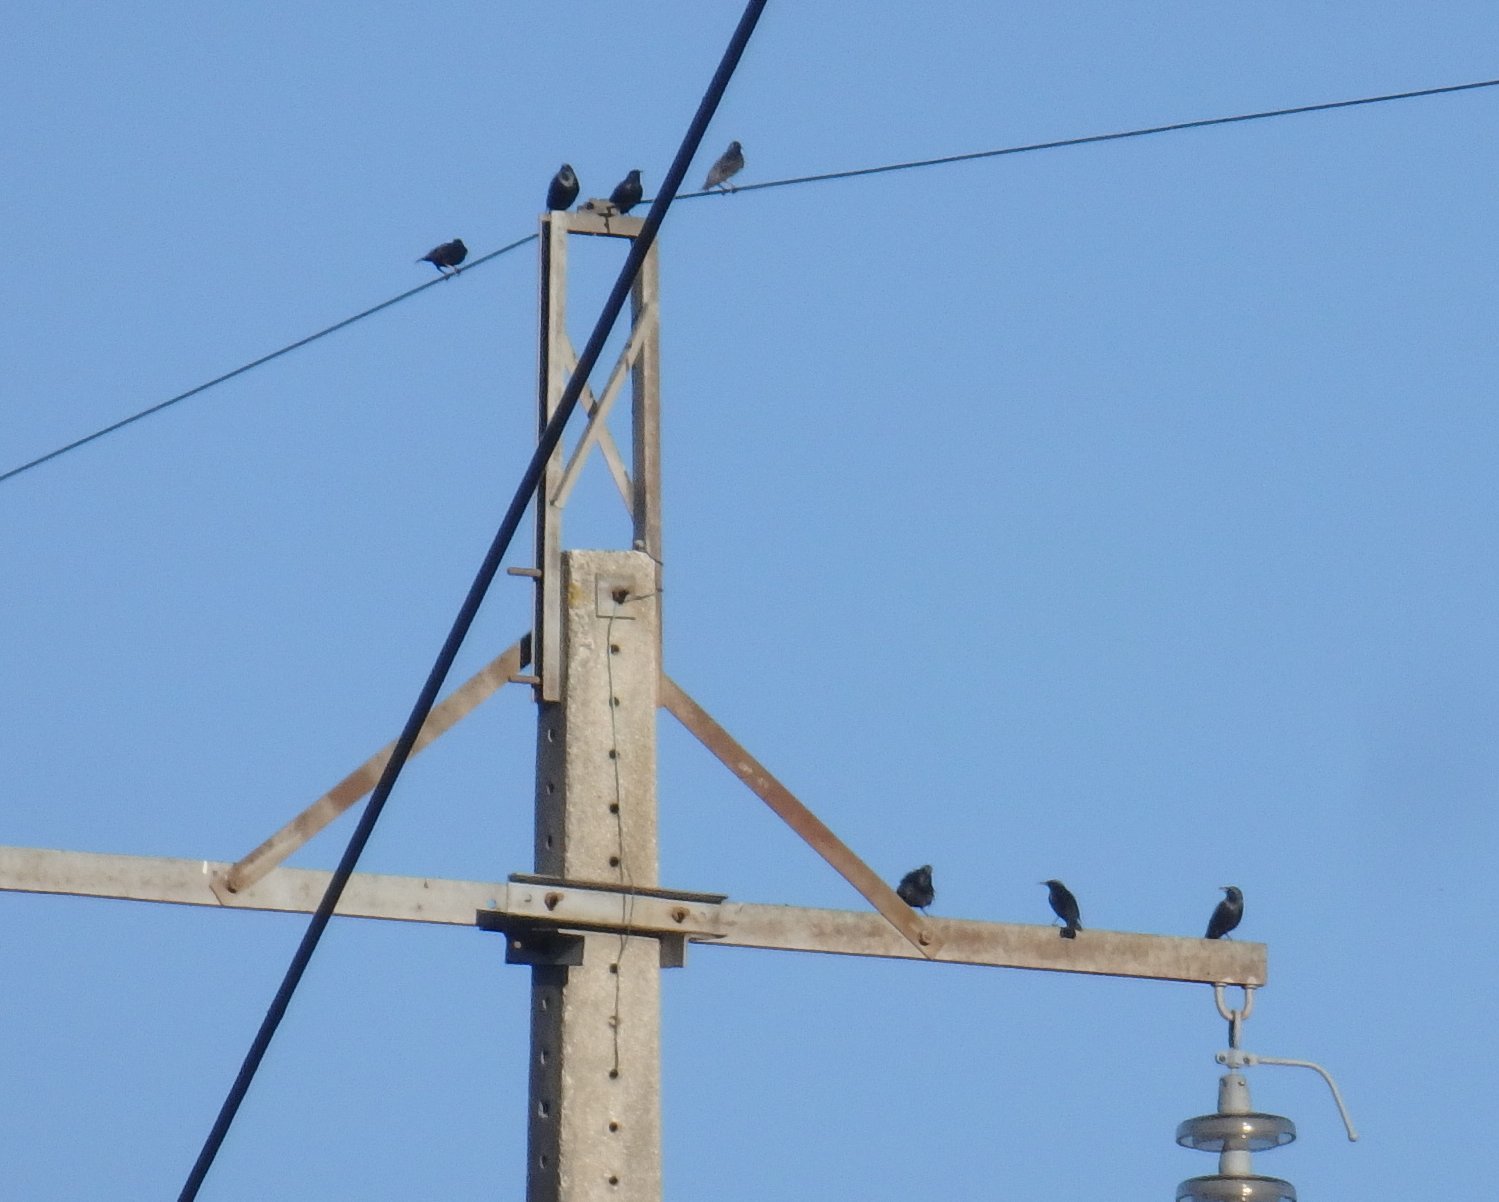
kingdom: Animalia
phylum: Chordata
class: Aves
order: Passeriformes
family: Sturnidae
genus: Sturnus
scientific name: Sturnus unicolor
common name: Spotless starling
